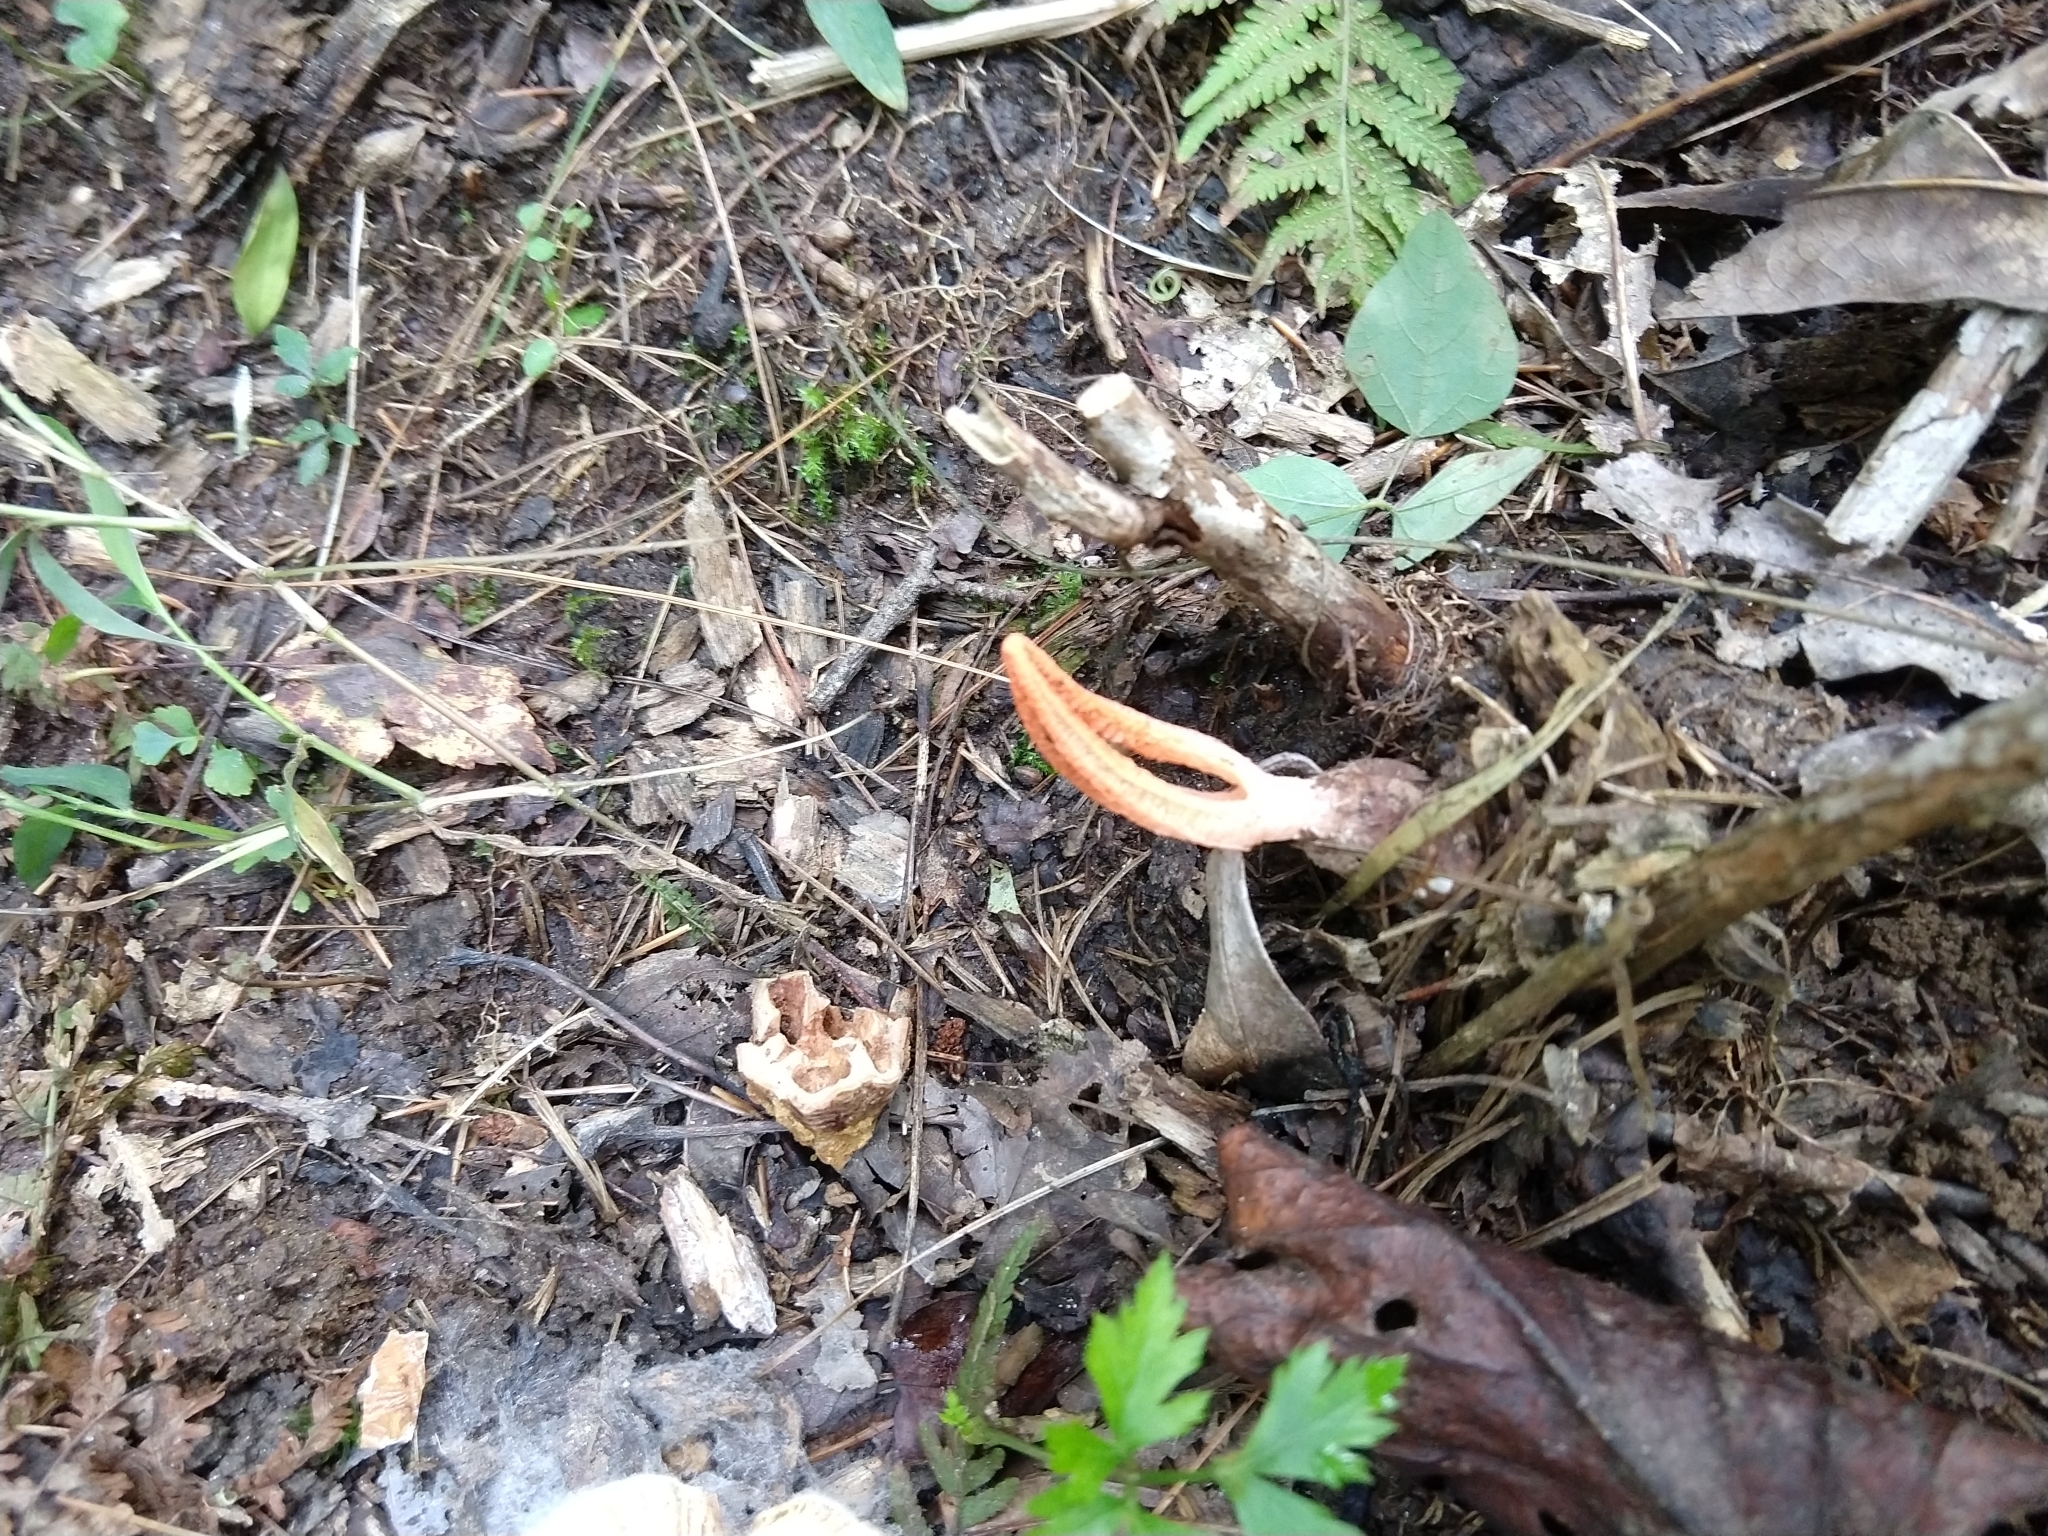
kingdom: Fungi
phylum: Basidiomycota
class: Agaricomycetes
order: Phallales
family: Phallaceae
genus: Pseudocolus
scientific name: Pseudocolus fusiformis
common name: Stinky squid
